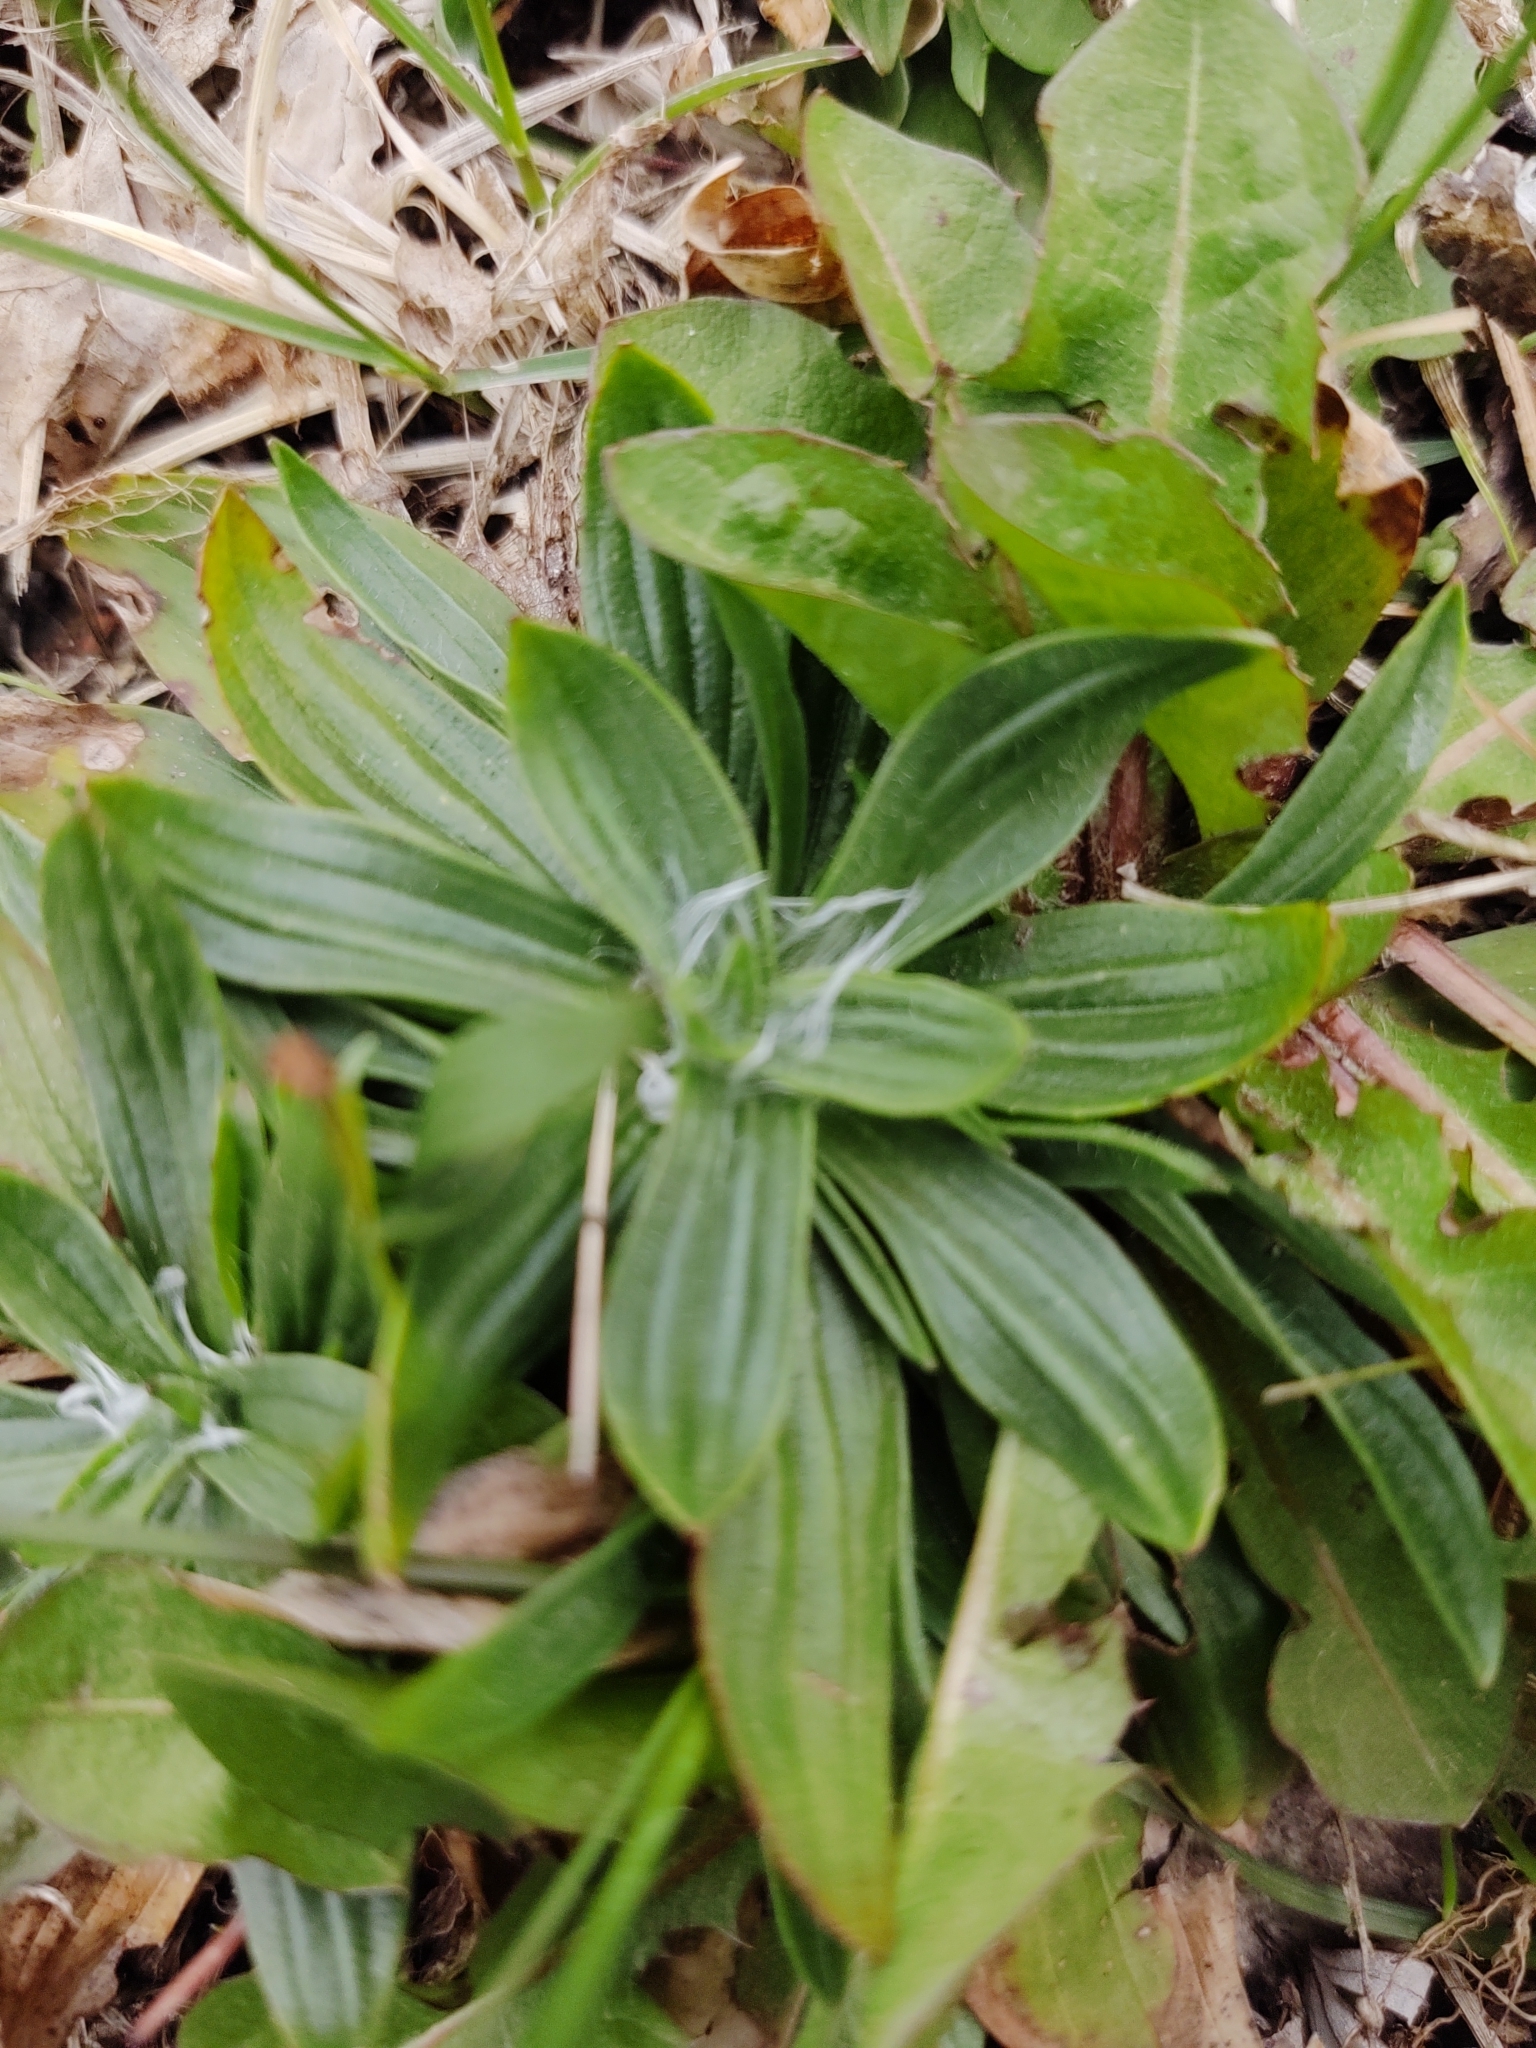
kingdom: Plantae
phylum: Tracheophyta
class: Magnoliopsida
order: Lamiales
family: Plantaginaceae
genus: Plantago
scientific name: Plantago lanceolata
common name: Ribwort plantain
